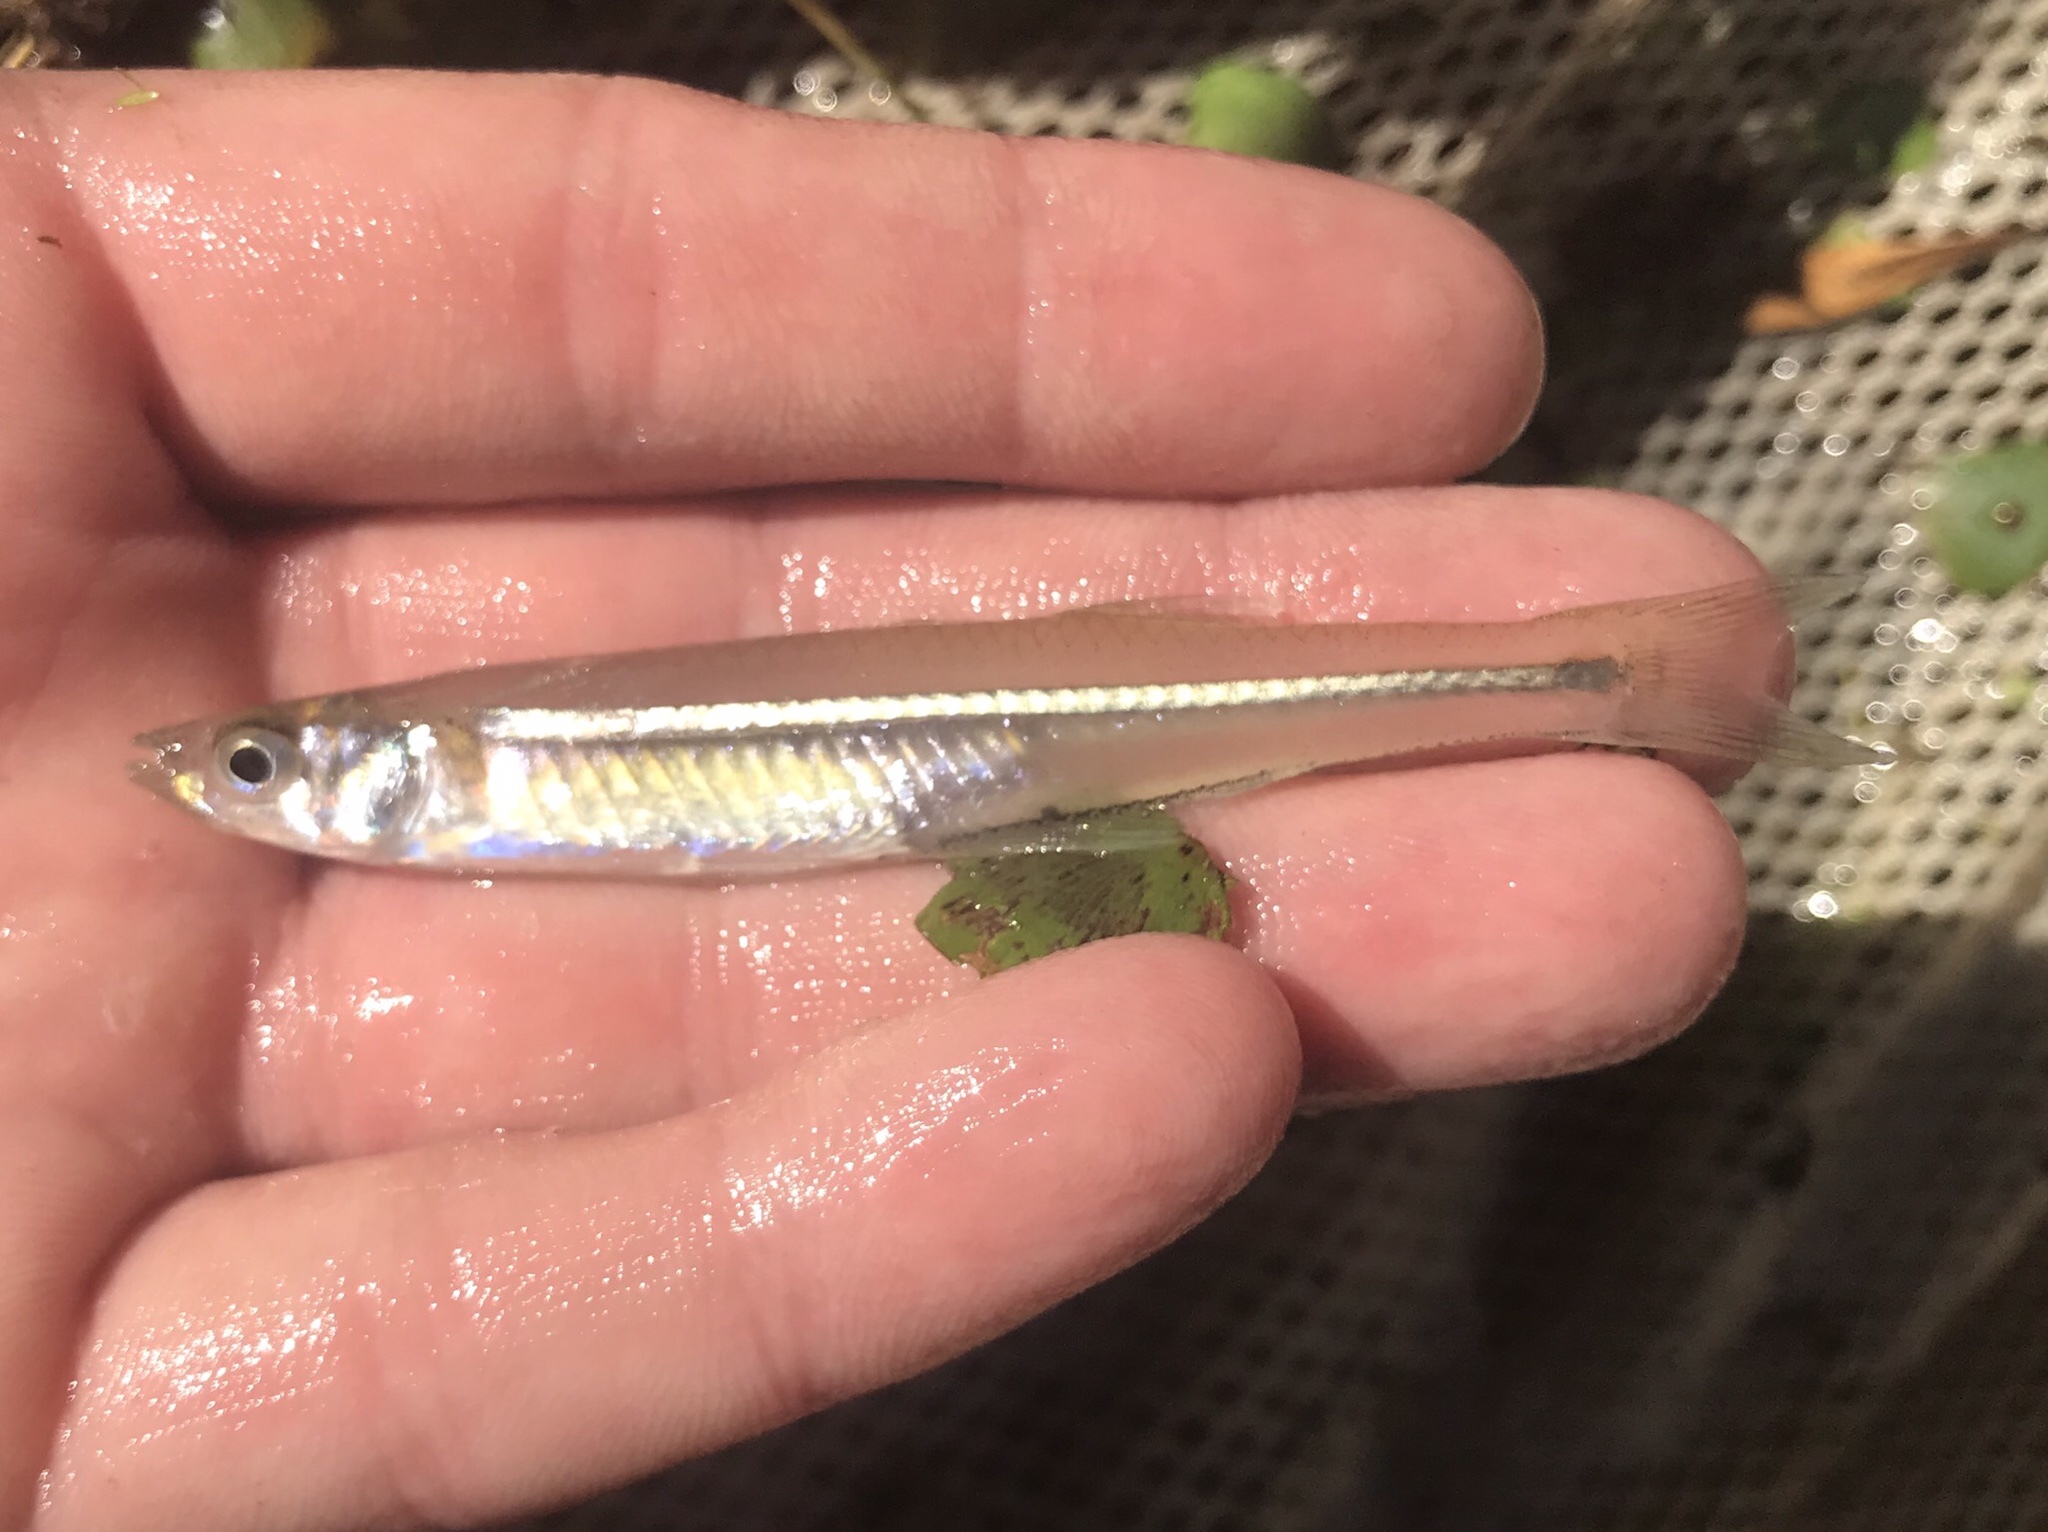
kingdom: Animalia
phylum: Chordata
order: Atheriniformes
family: Atherinopsidae
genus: Menidia
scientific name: Menidia beryllina
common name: Inland silverside
